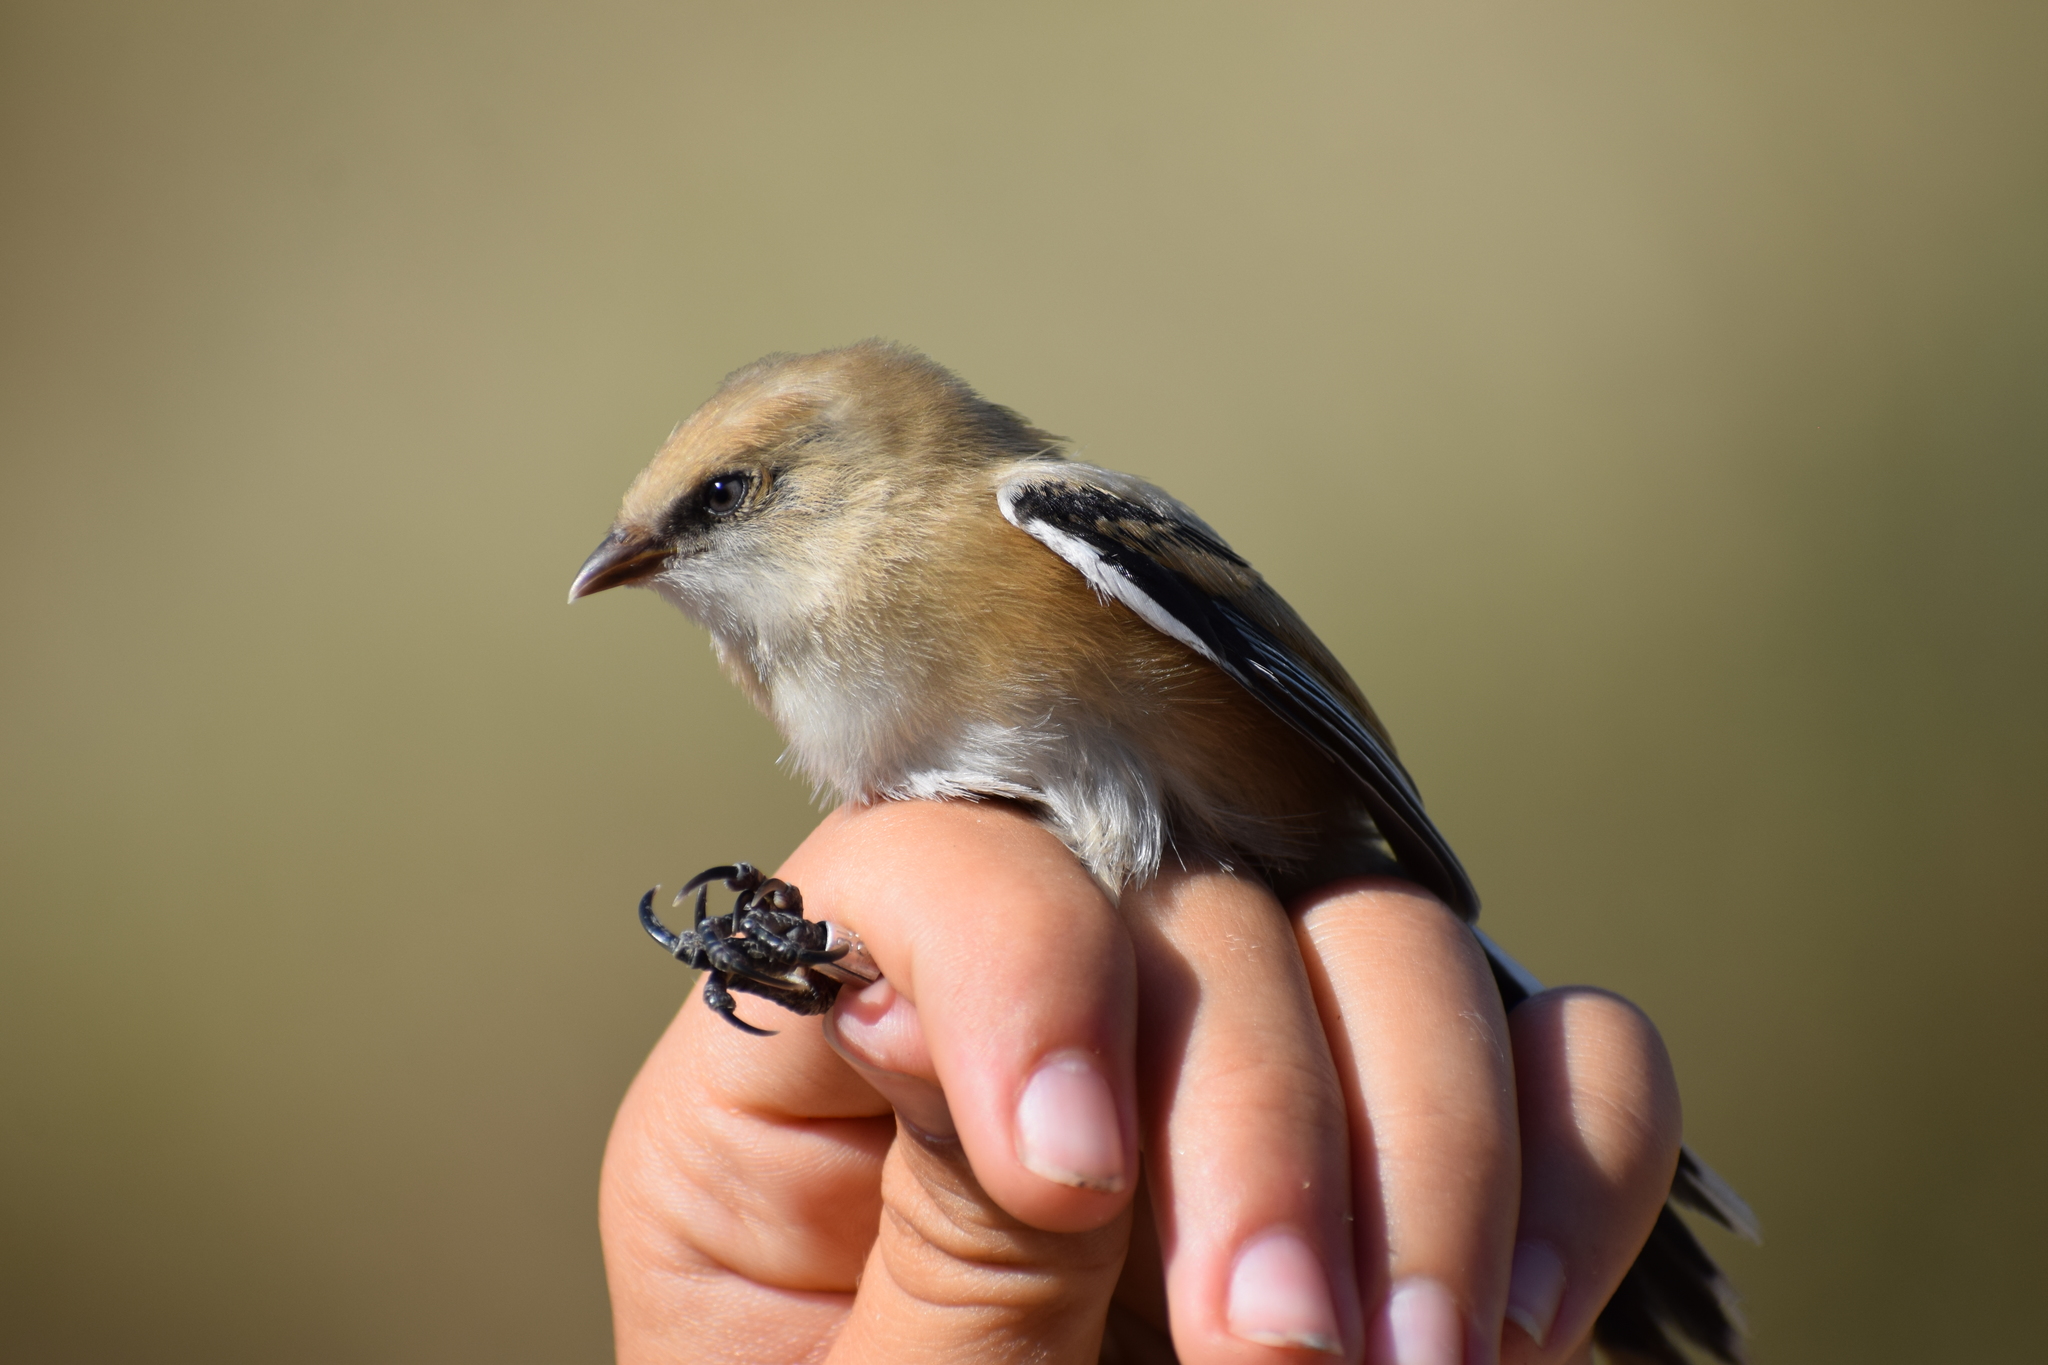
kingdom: Animalia
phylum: Chordata
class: Aves
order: Passeriformes
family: Panuridae
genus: Panurus
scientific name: Panurus biarmicus
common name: Bearded reedling
